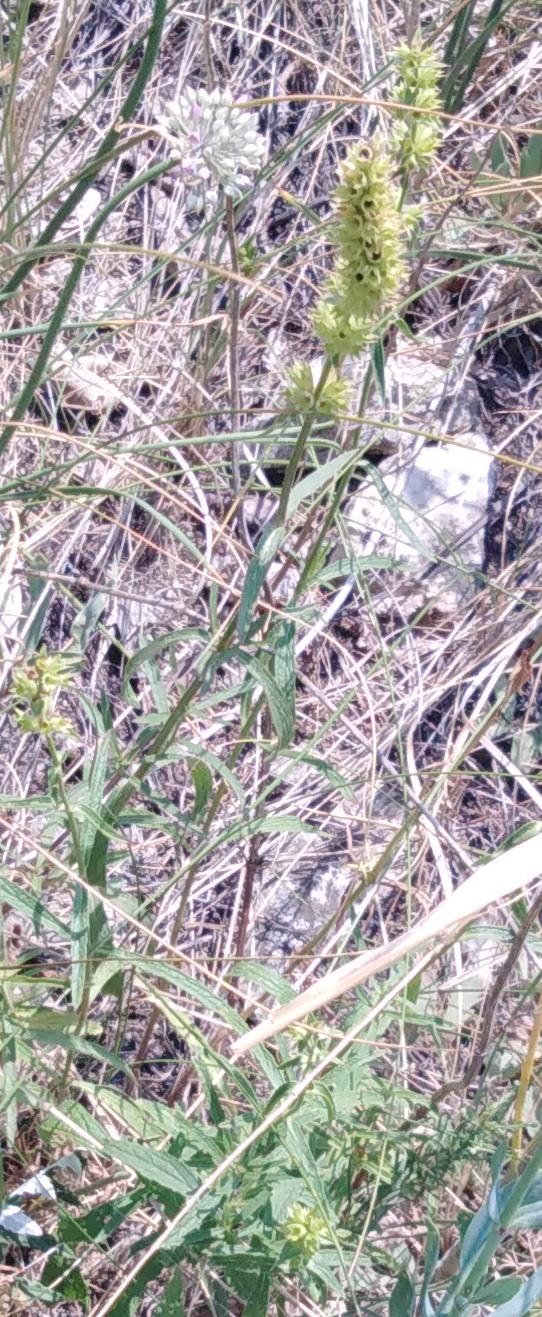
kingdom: Plantae
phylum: Tracheophyta
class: Magnoliopsida
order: Lamiales
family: Lamiaceae
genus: Stachys
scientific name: Stachys recta
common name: Perennial yellow-woundwort
